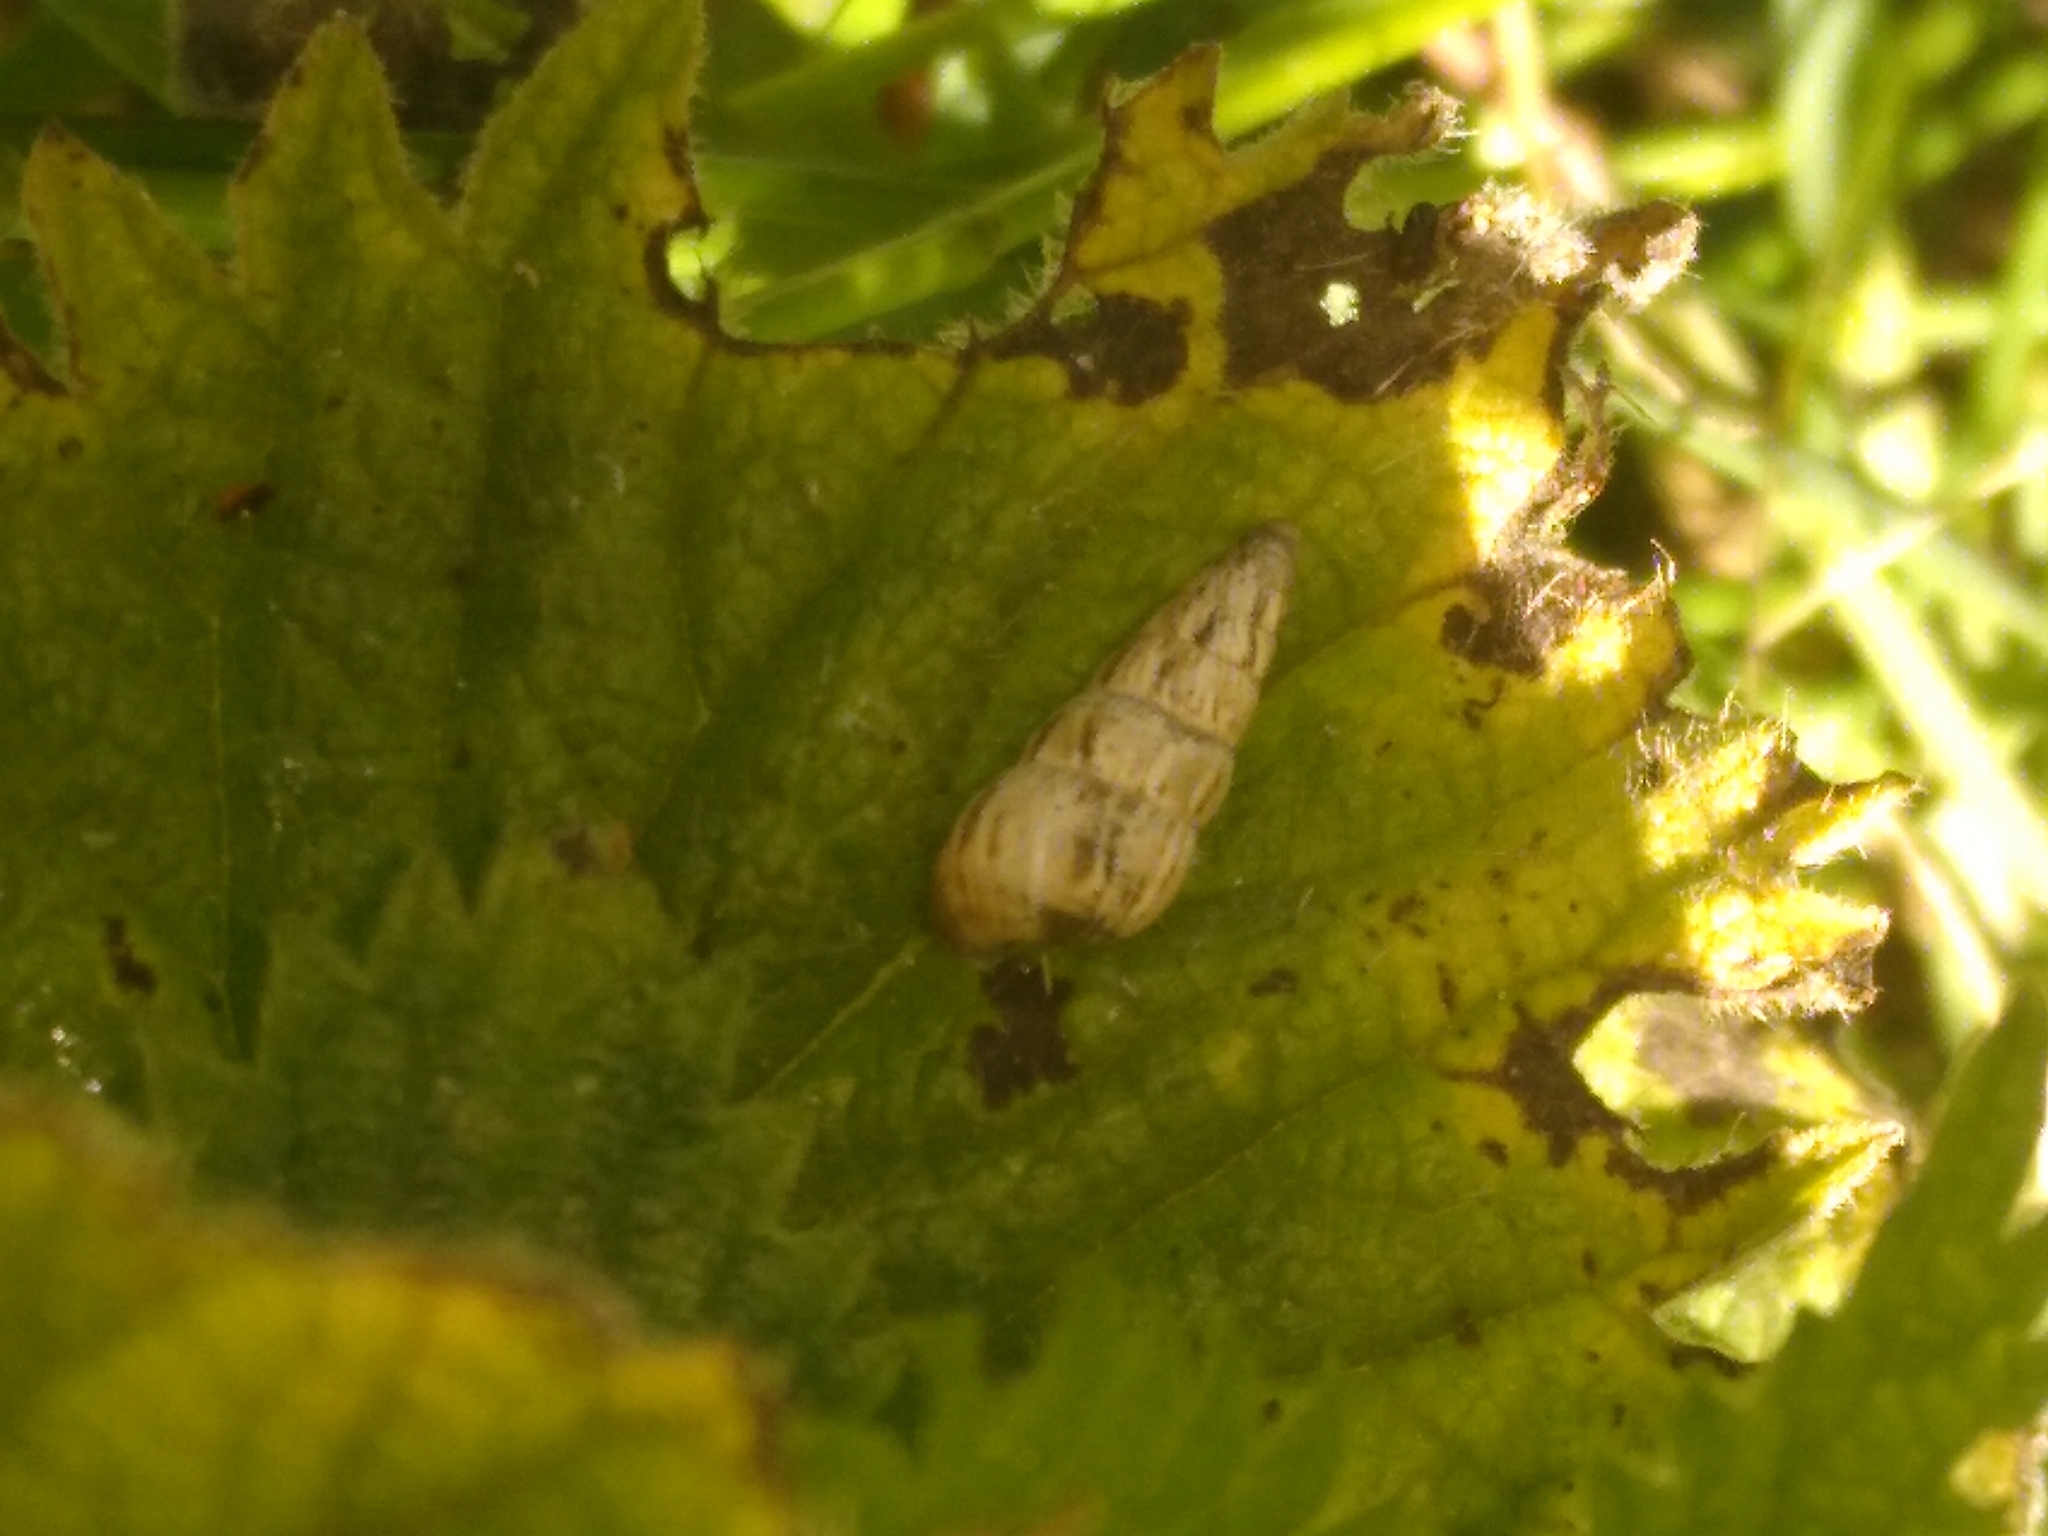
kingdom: Animalia
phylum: Mollusca
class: Gastropoda
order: Stylommatophora
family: Geomitridae
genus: Cochlicella
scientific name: Cochlicella acuta
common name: Pointed snail
